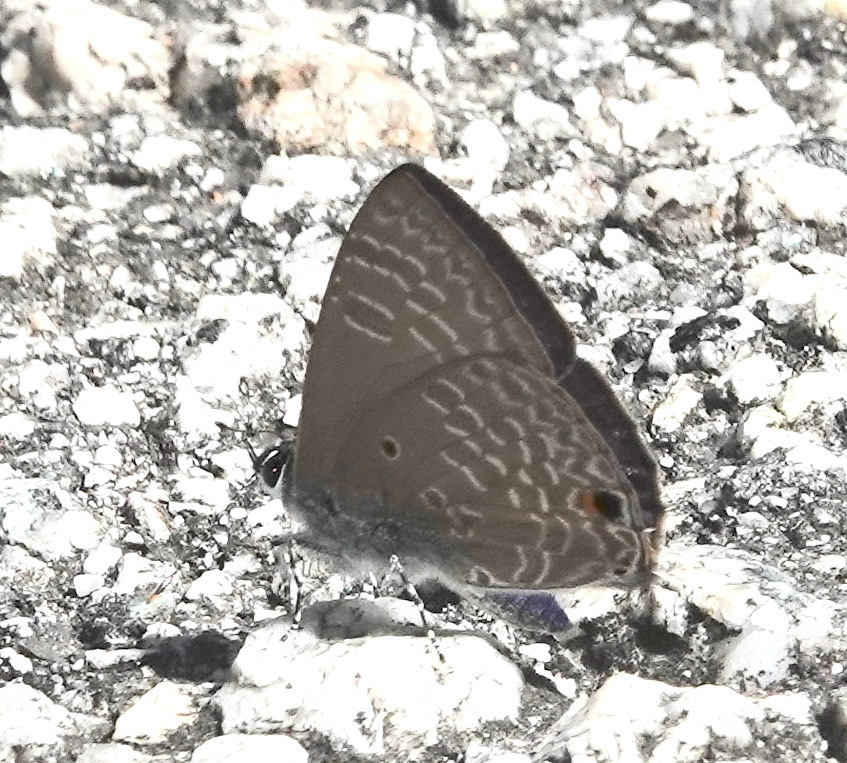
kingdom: Animalia
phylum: Arthropoda
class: Insecta
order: Lepidoptera
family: Lycaenidae
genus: Anthene
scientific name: Anthene lycaenina
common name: Pointed ciliate blue
